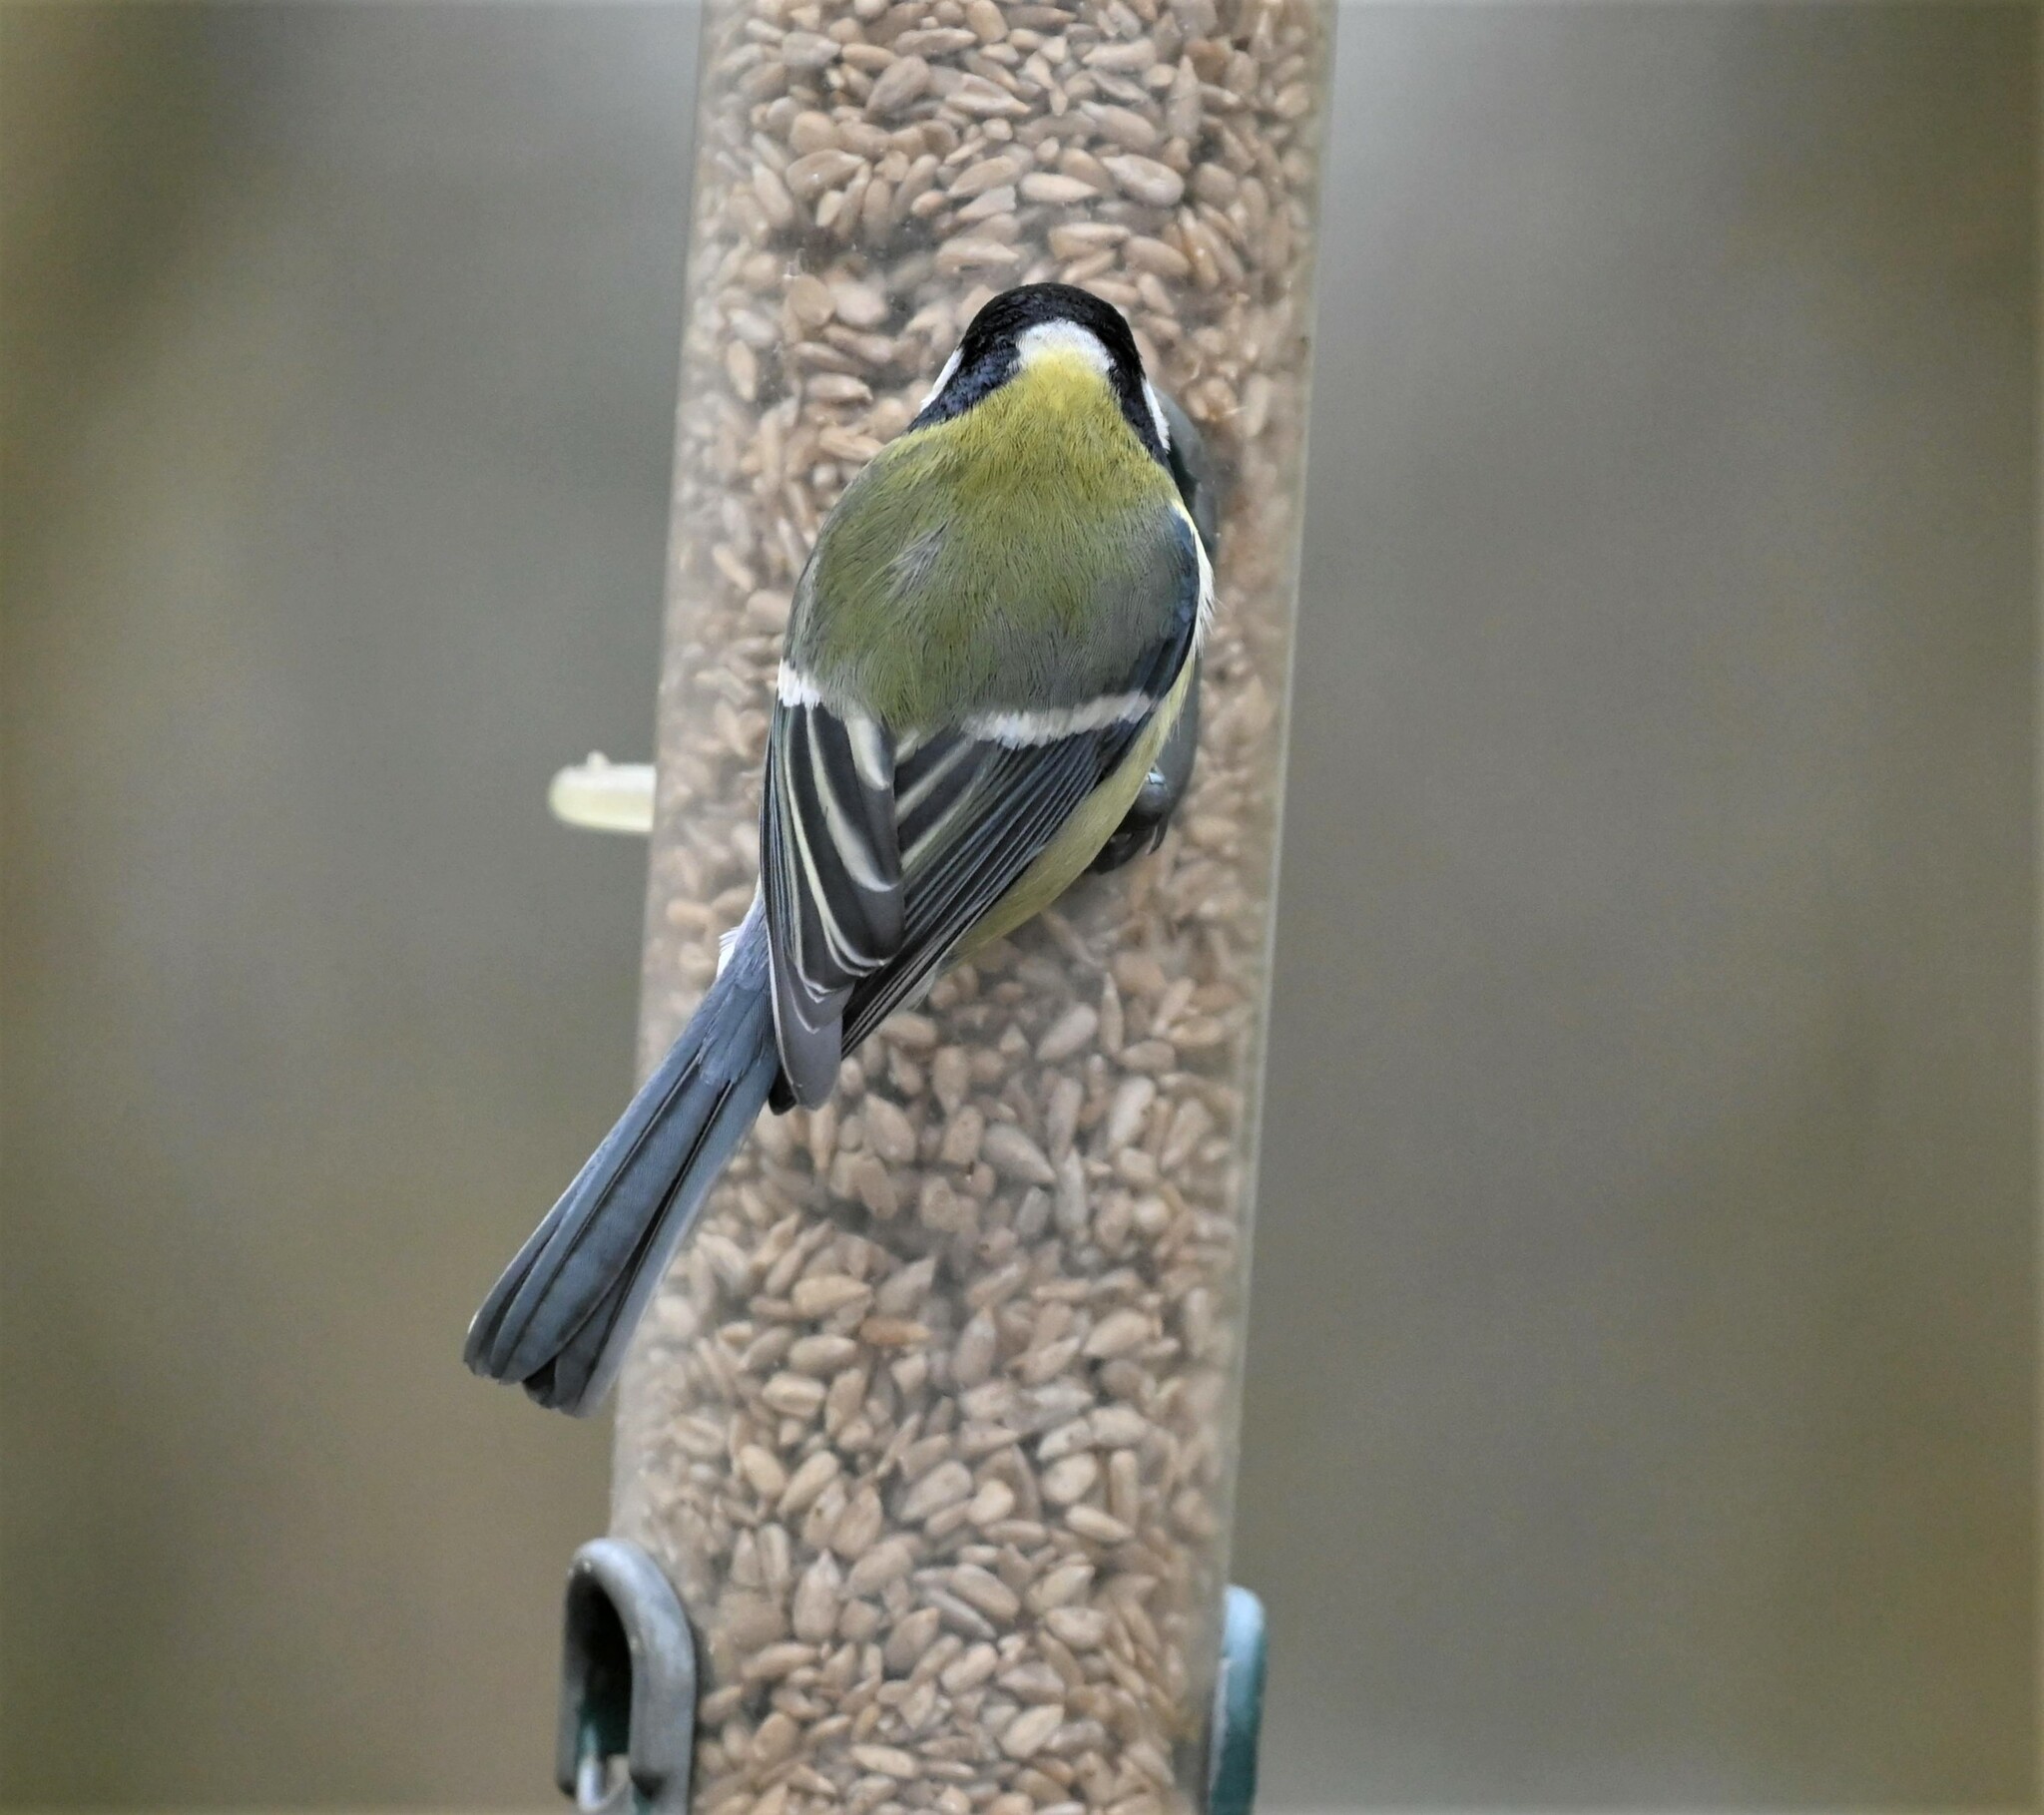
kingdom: Animalia
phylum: Chordata
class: Aves
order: Passeriformes
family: Paridae
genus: Parus
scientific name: Parus major
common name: Great tit
